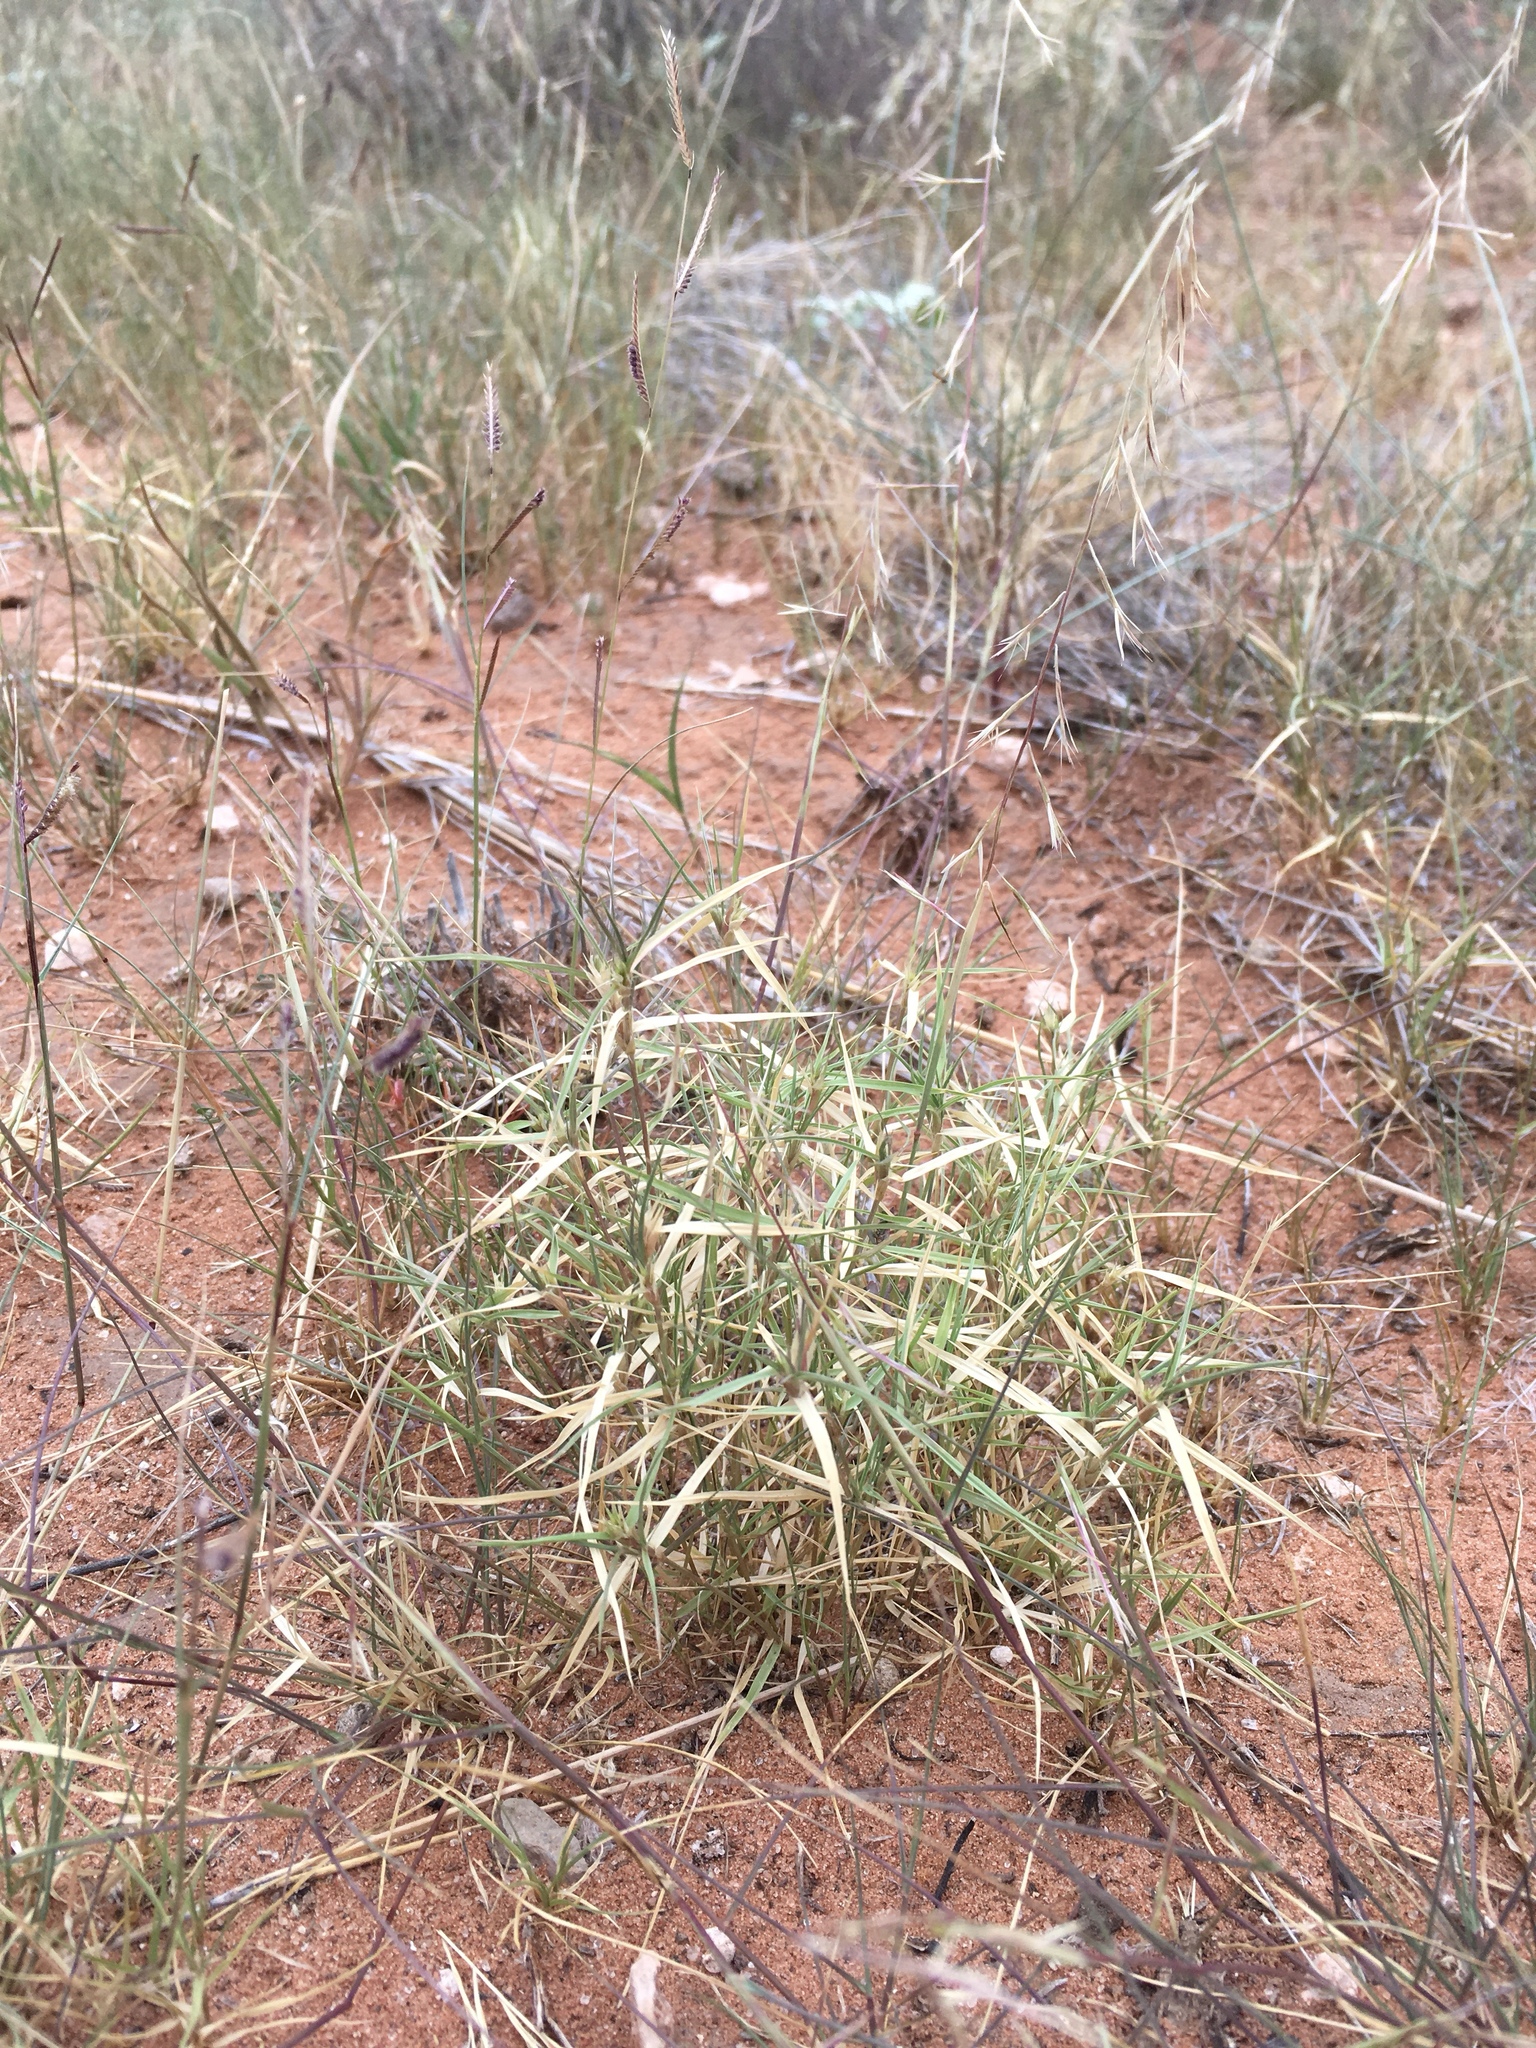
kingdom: Plantae
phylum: Tracheophyta
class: Liliopsida
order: Poales
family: Poaceae
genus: Munroa
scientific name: Munroa squarrosa
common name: False buffalo grass
